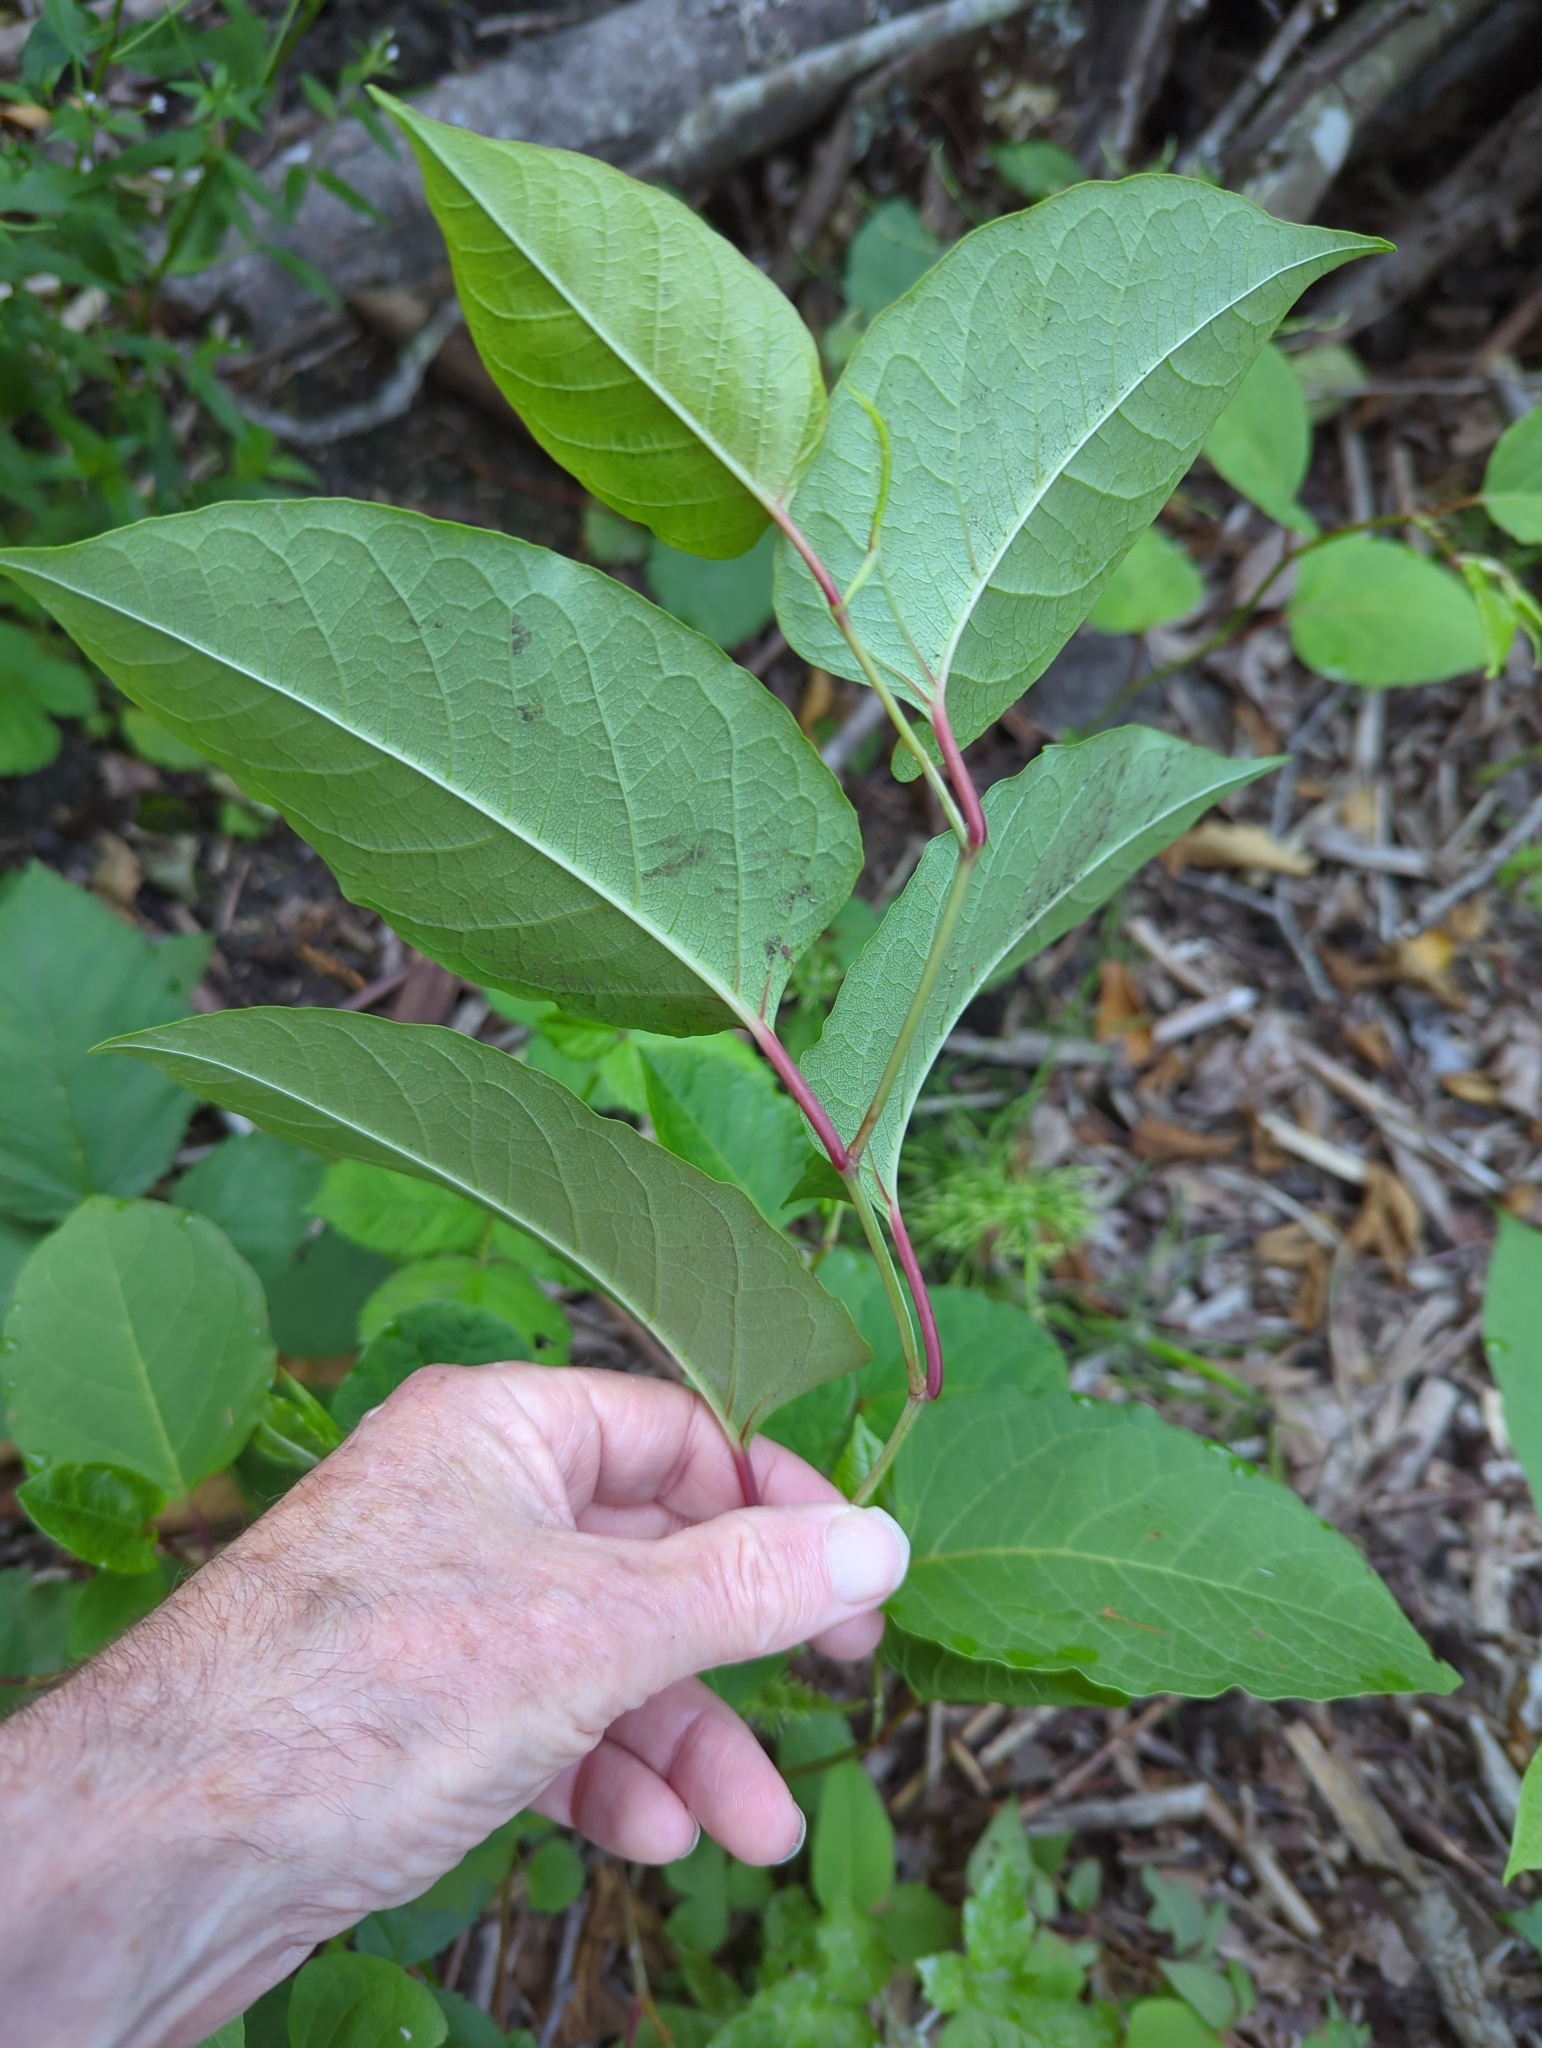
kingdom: Plantae
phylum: Tracheophyta
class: Magnoliopsida
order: Caryophyllales
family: Polygonaceae
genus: Reynoutria
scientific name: Reynoutria japonica
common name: Japanese knotweed
